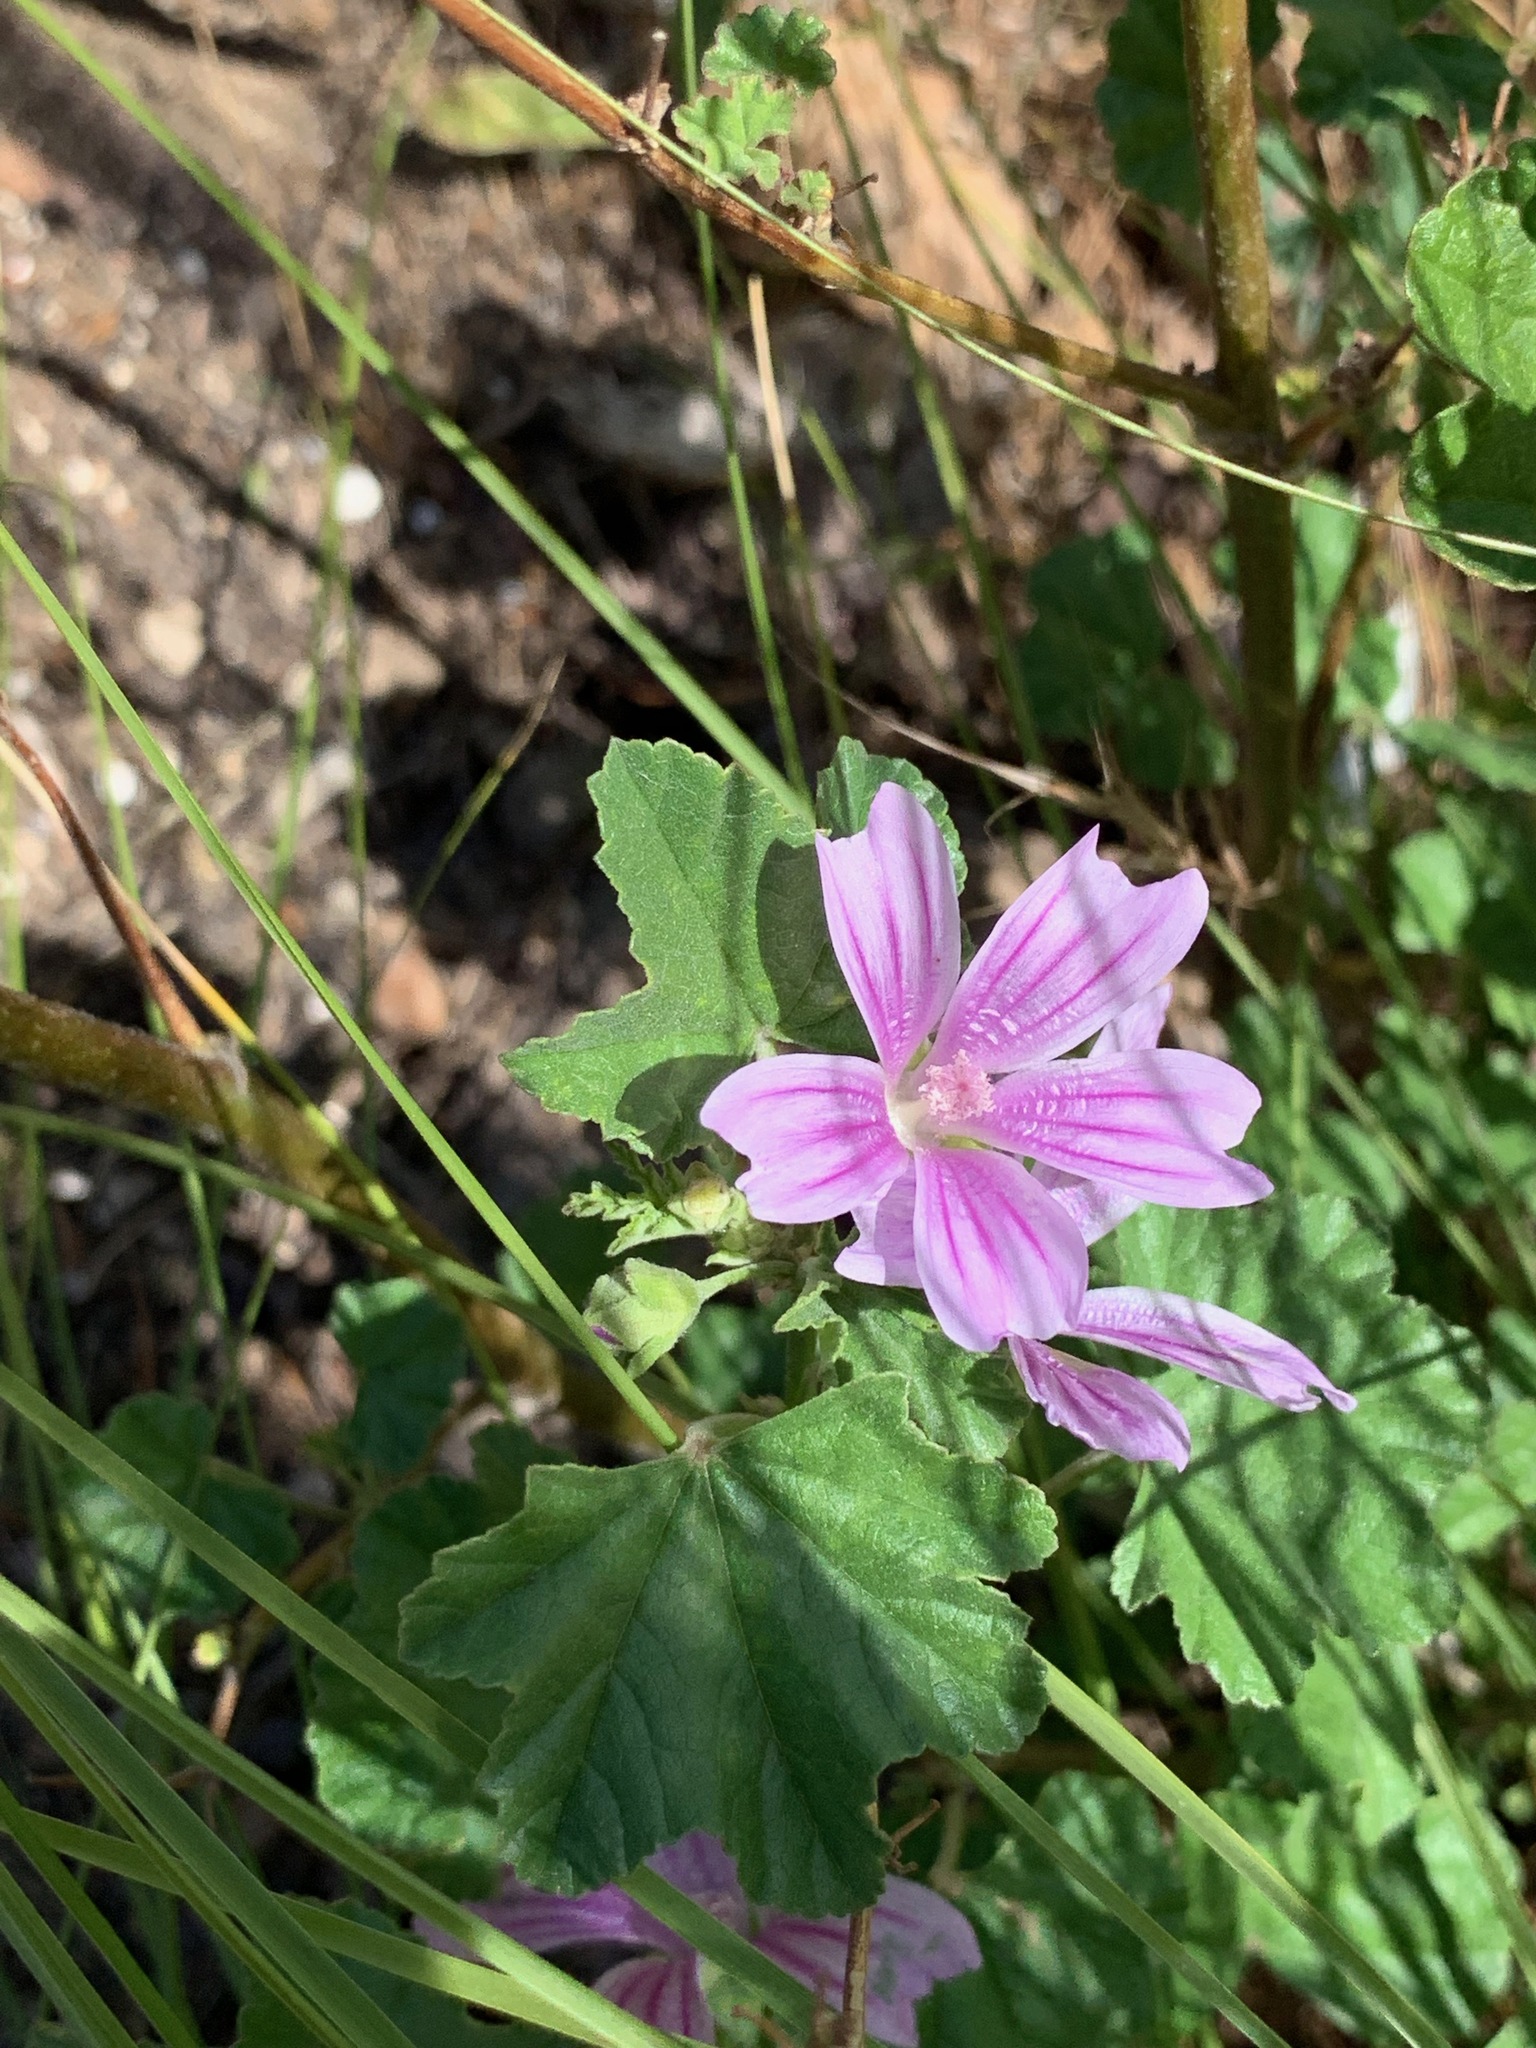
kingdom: Plantae
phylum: Tracheophyta
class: Magnoliopsida
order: Malvales
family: Malvaceae
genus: Malva
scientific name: Malva sylvestris
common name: Common mallow
